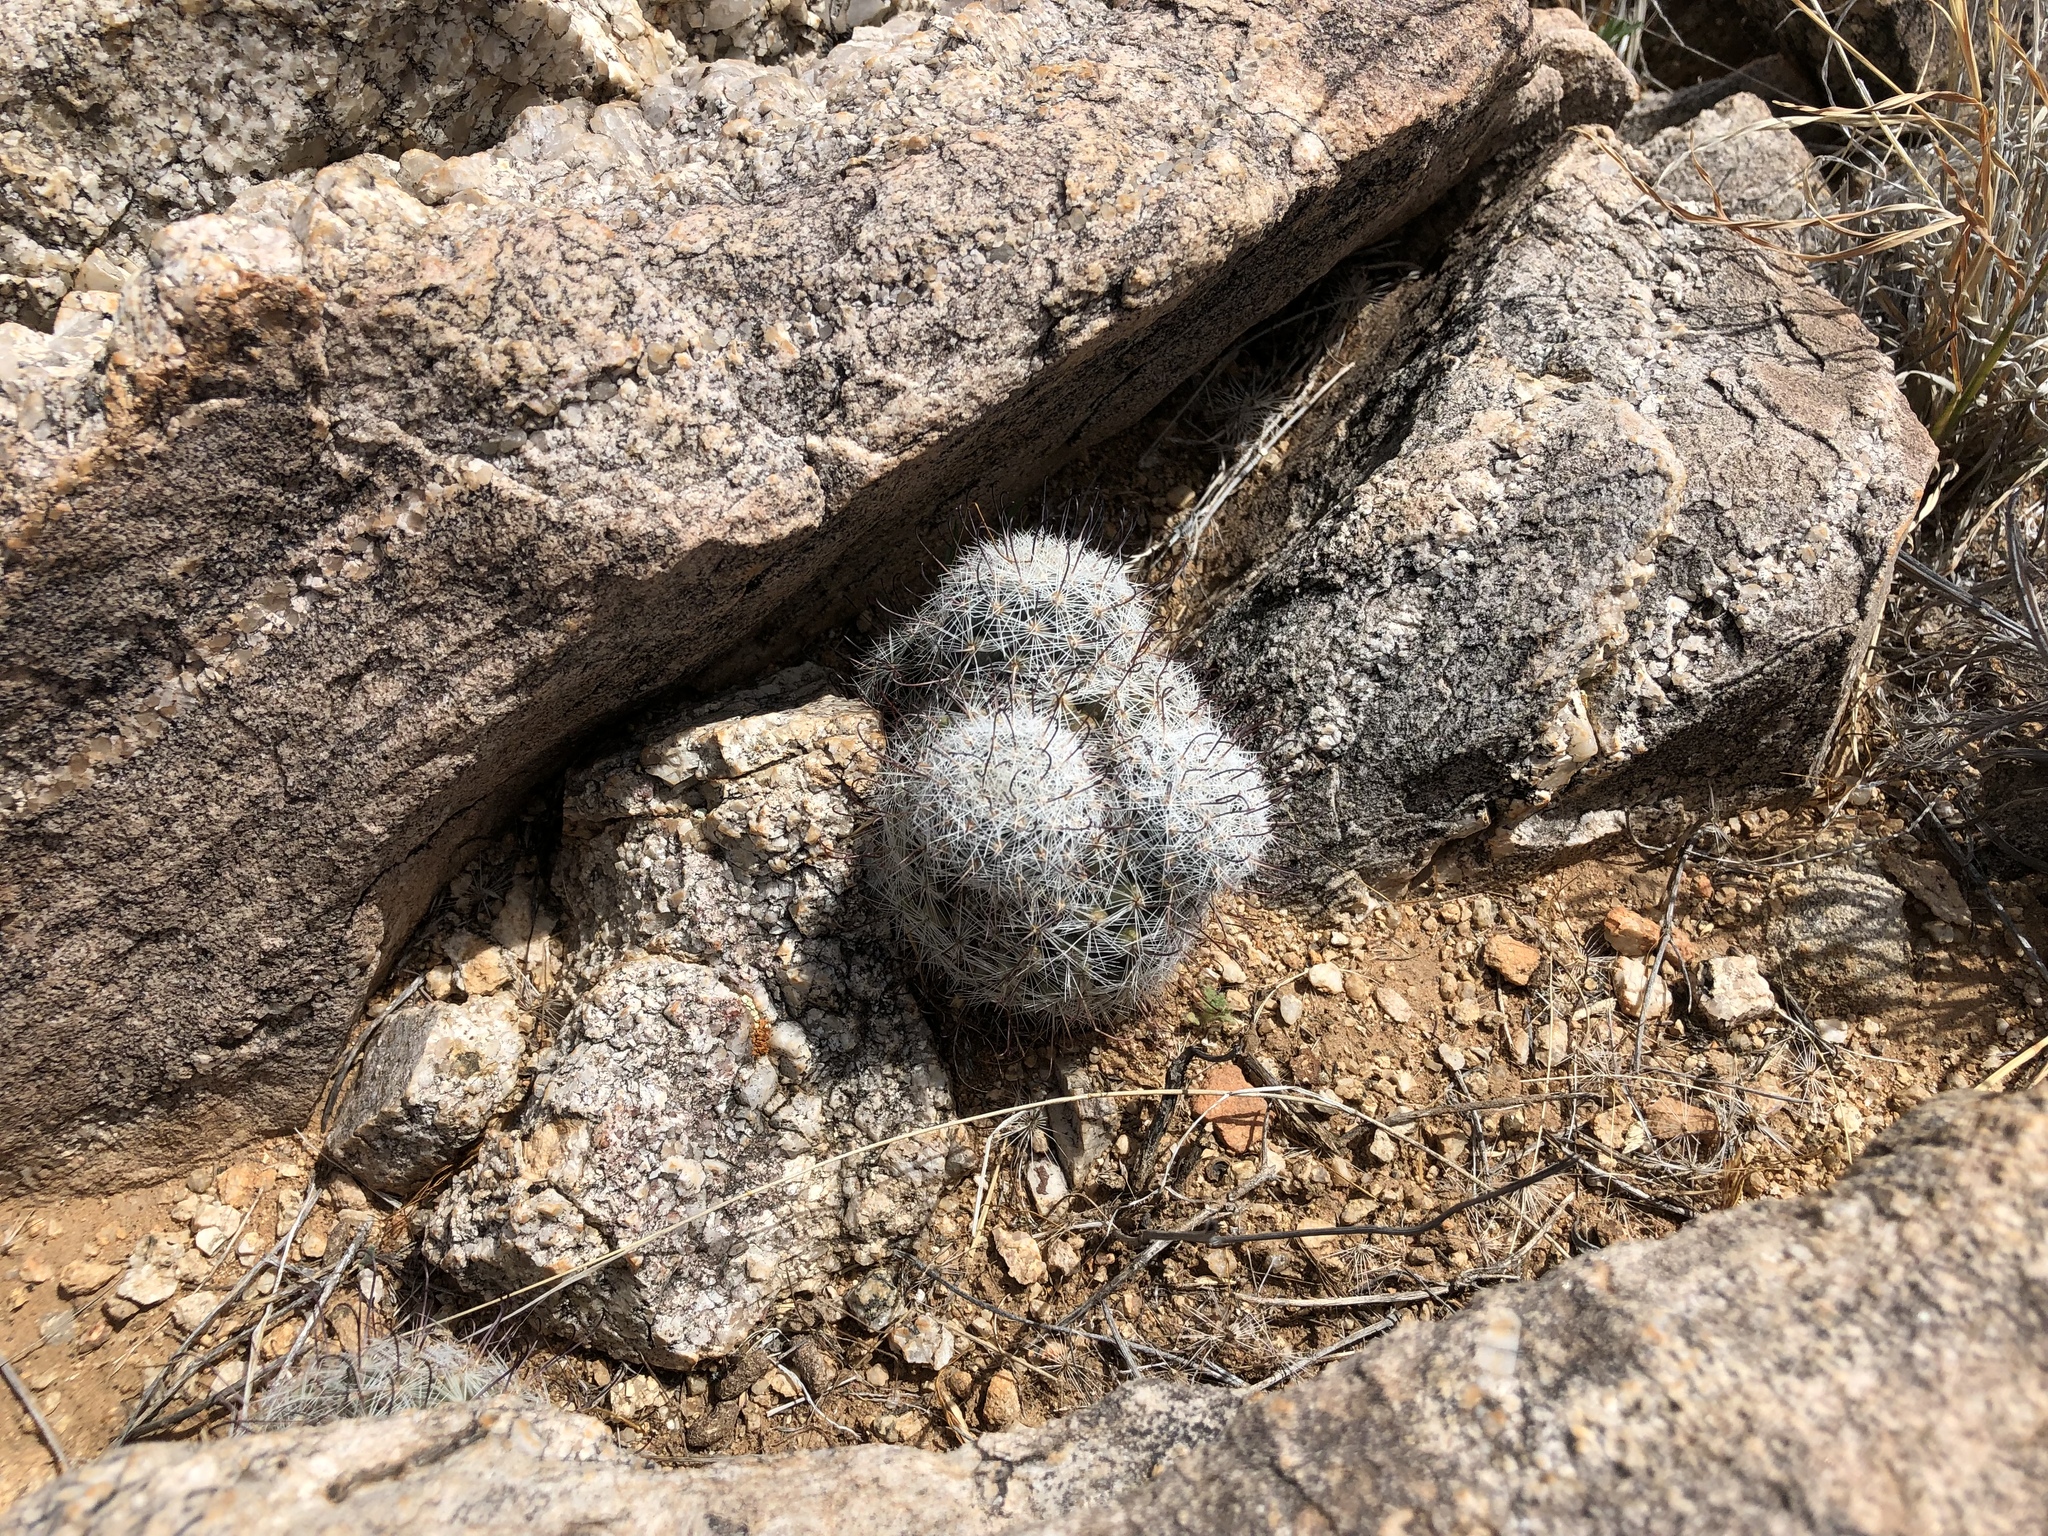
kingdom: Plantae
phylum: Tracheophyta
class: Magnoliopsida
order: Caryophyllales
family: Cactaceae
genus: Cochemiea
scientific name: Cochemiea grahamii
